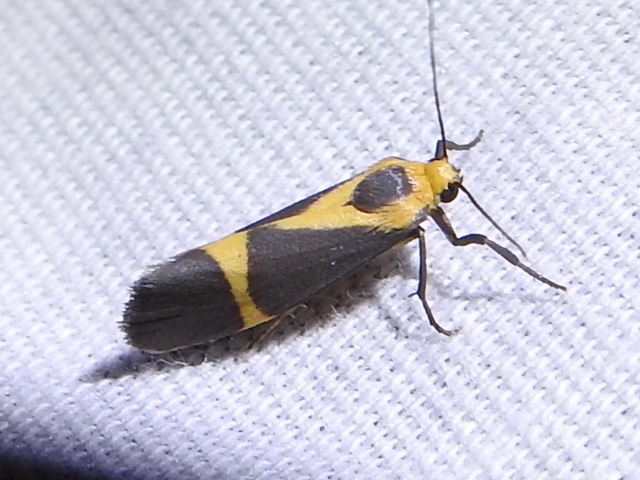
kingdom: Animalia
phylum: Arthropoda
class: Insecta
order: Lepidoptera
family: Erebidae
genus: Cisthene
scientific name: Cisthene tenuifascia
